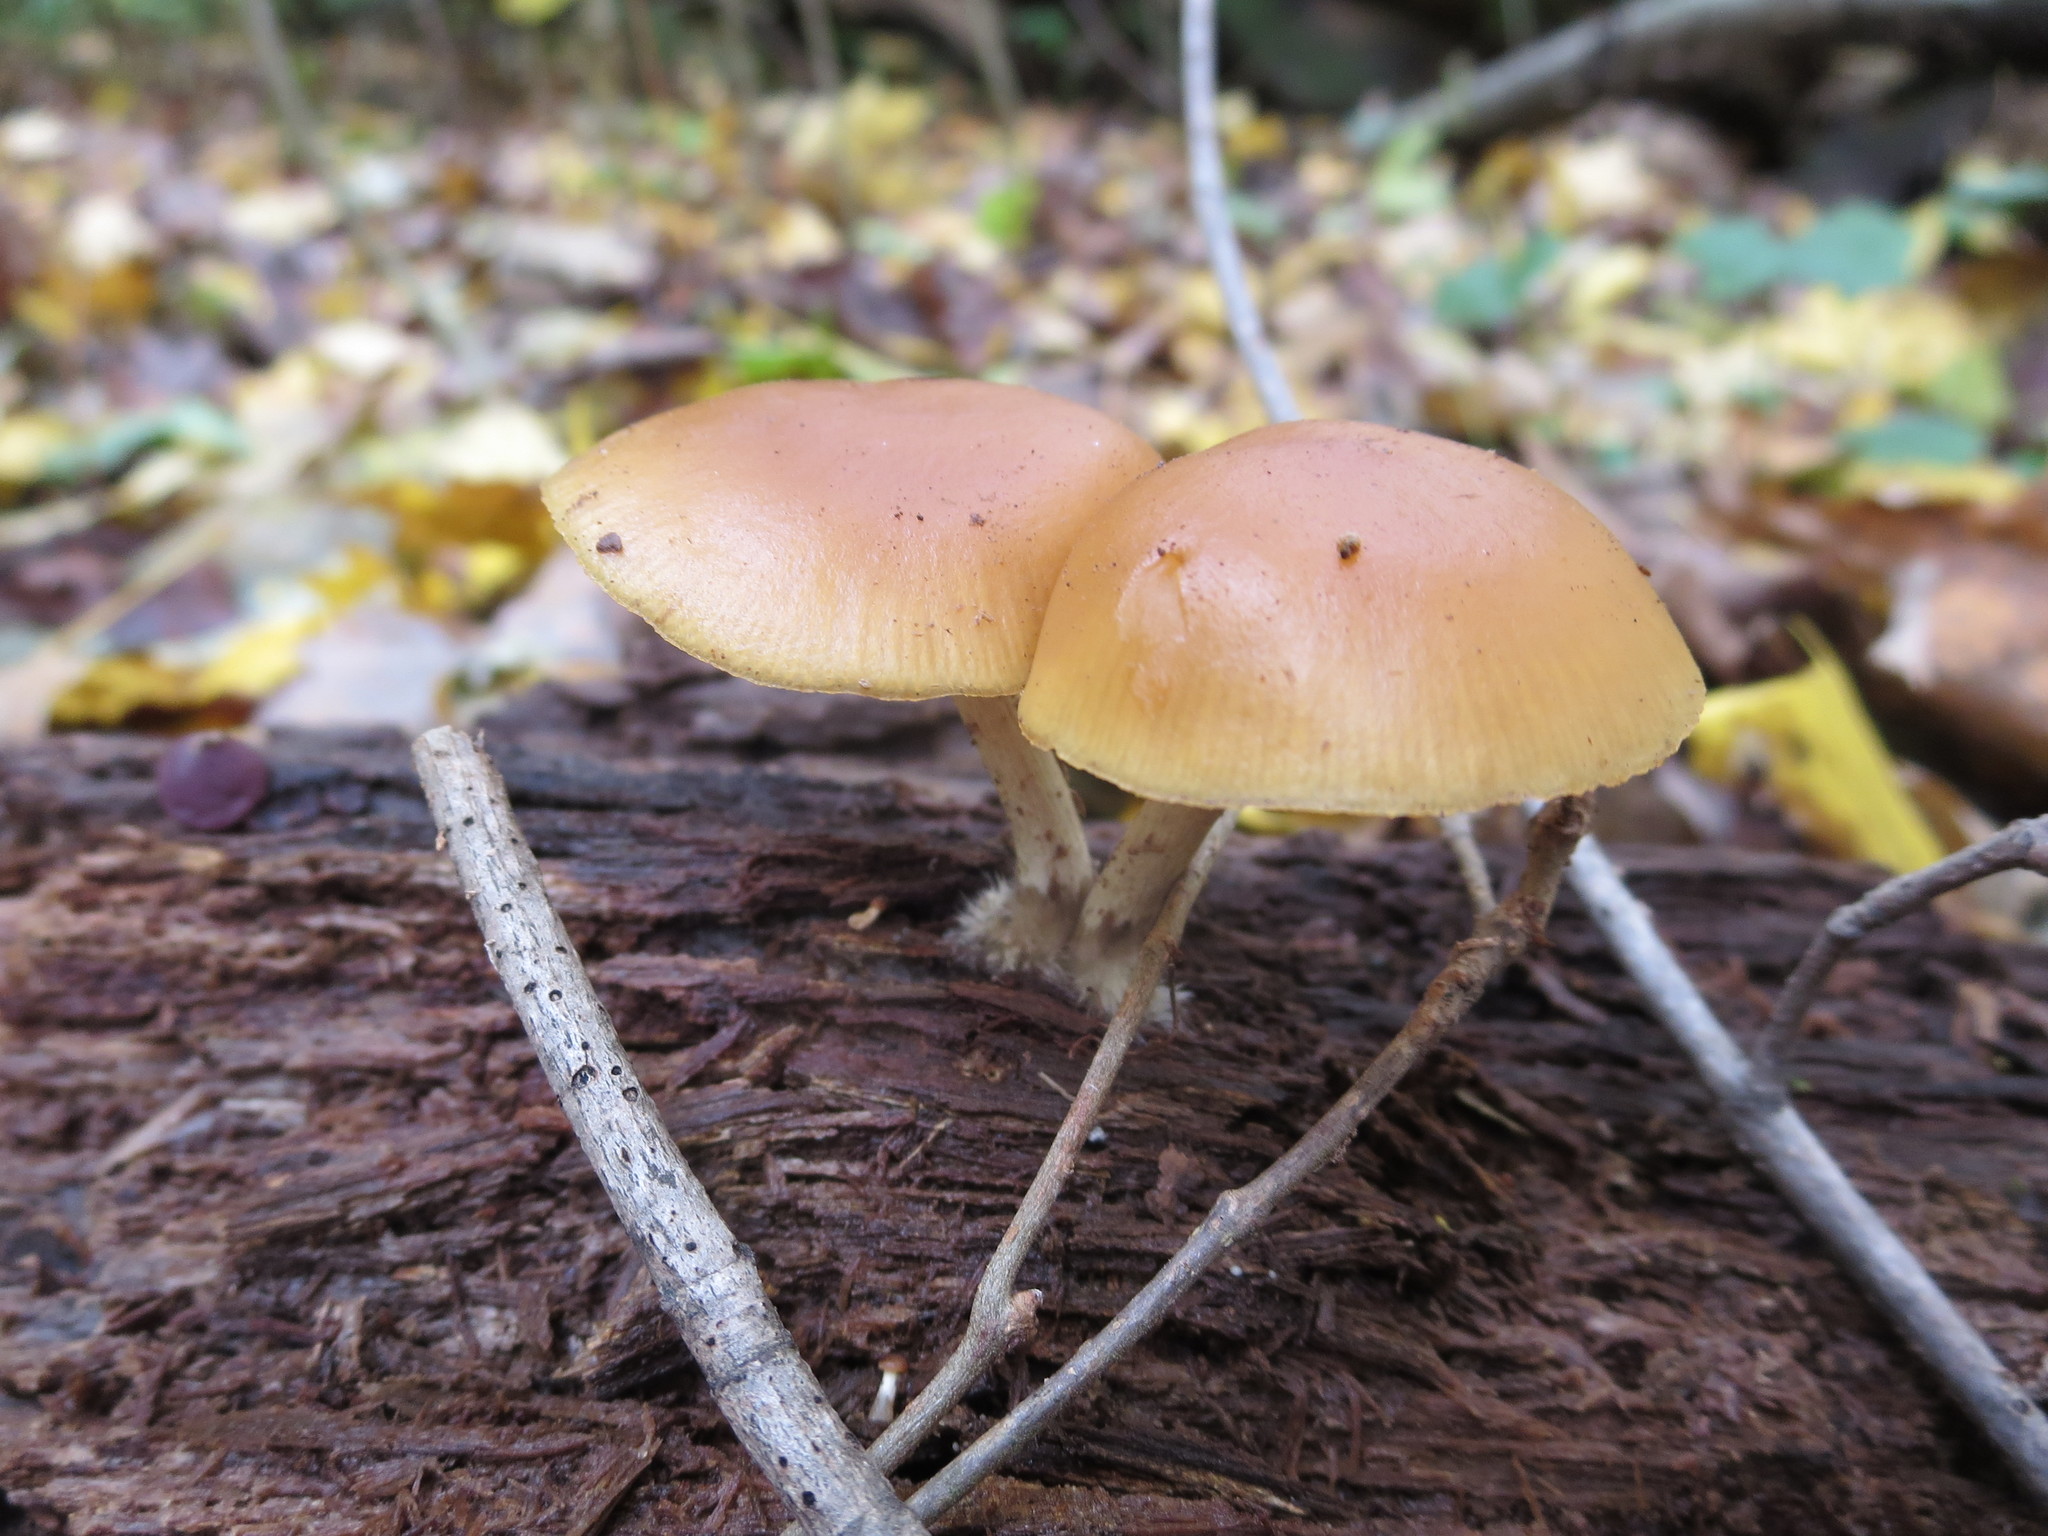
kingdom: Fungi
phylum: Basidiomycota
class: Agaricomycetes
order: Agaricales
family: Hymenogastraceae
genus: Galerina
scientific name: Galerina marginata
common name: Funeral bell
